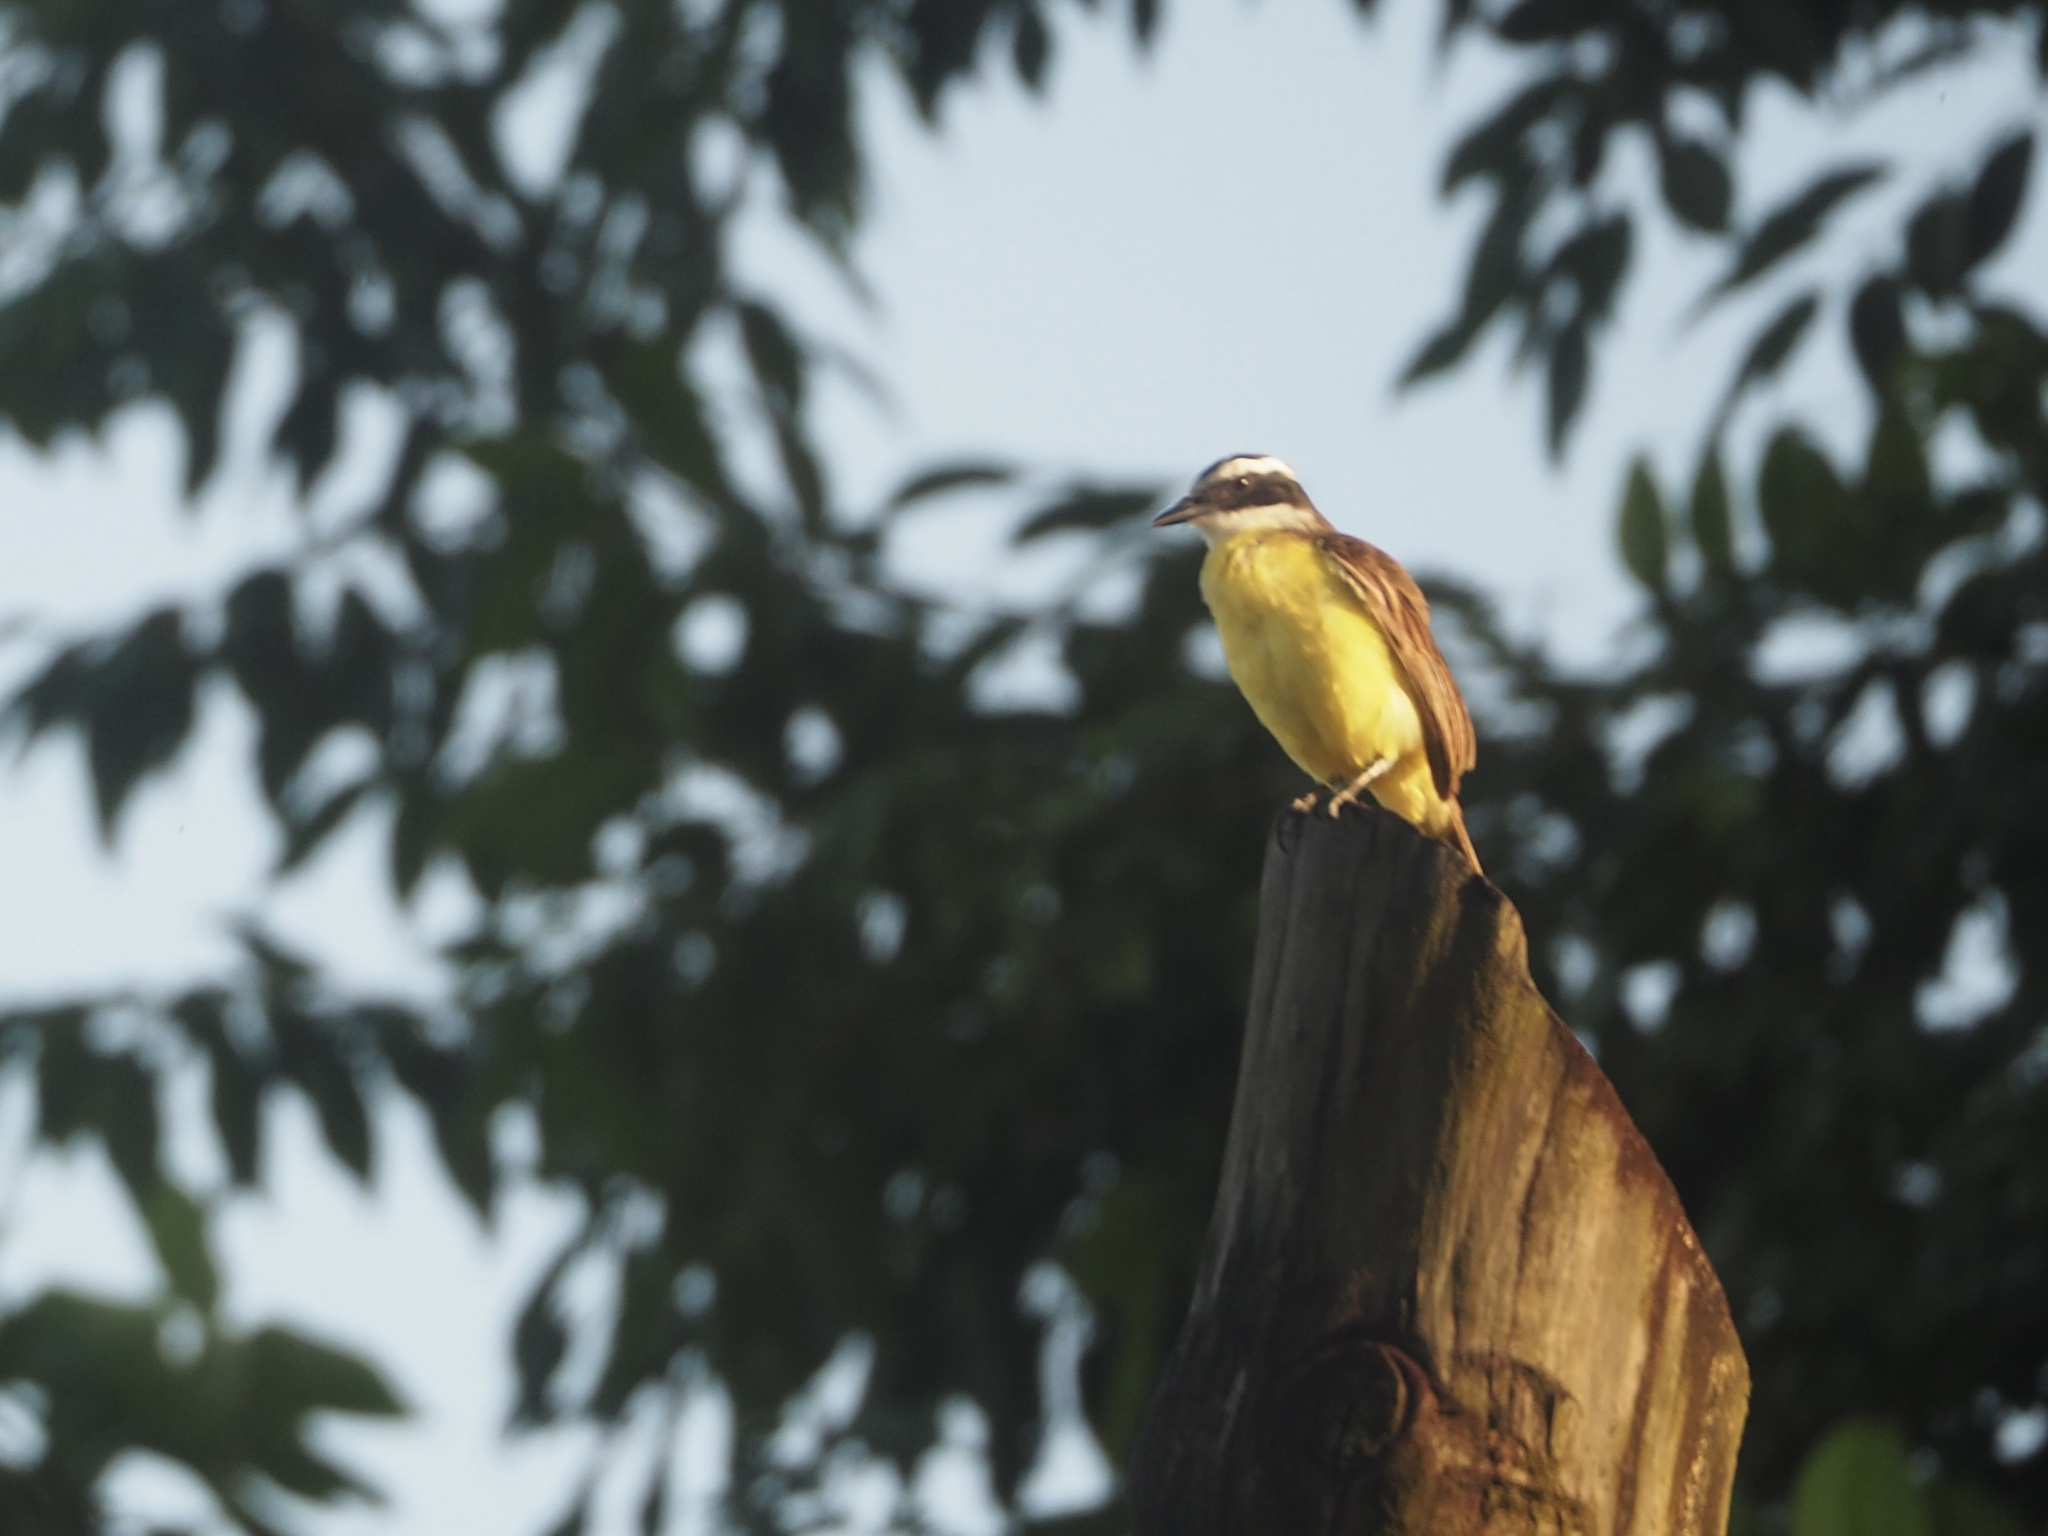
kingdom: Animalia
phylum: Chordata
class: Aves
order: Passeriformes
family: Tyrannidae
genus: Pitangus
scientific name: Pitangus sulphuratus
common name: Great kiskadee
